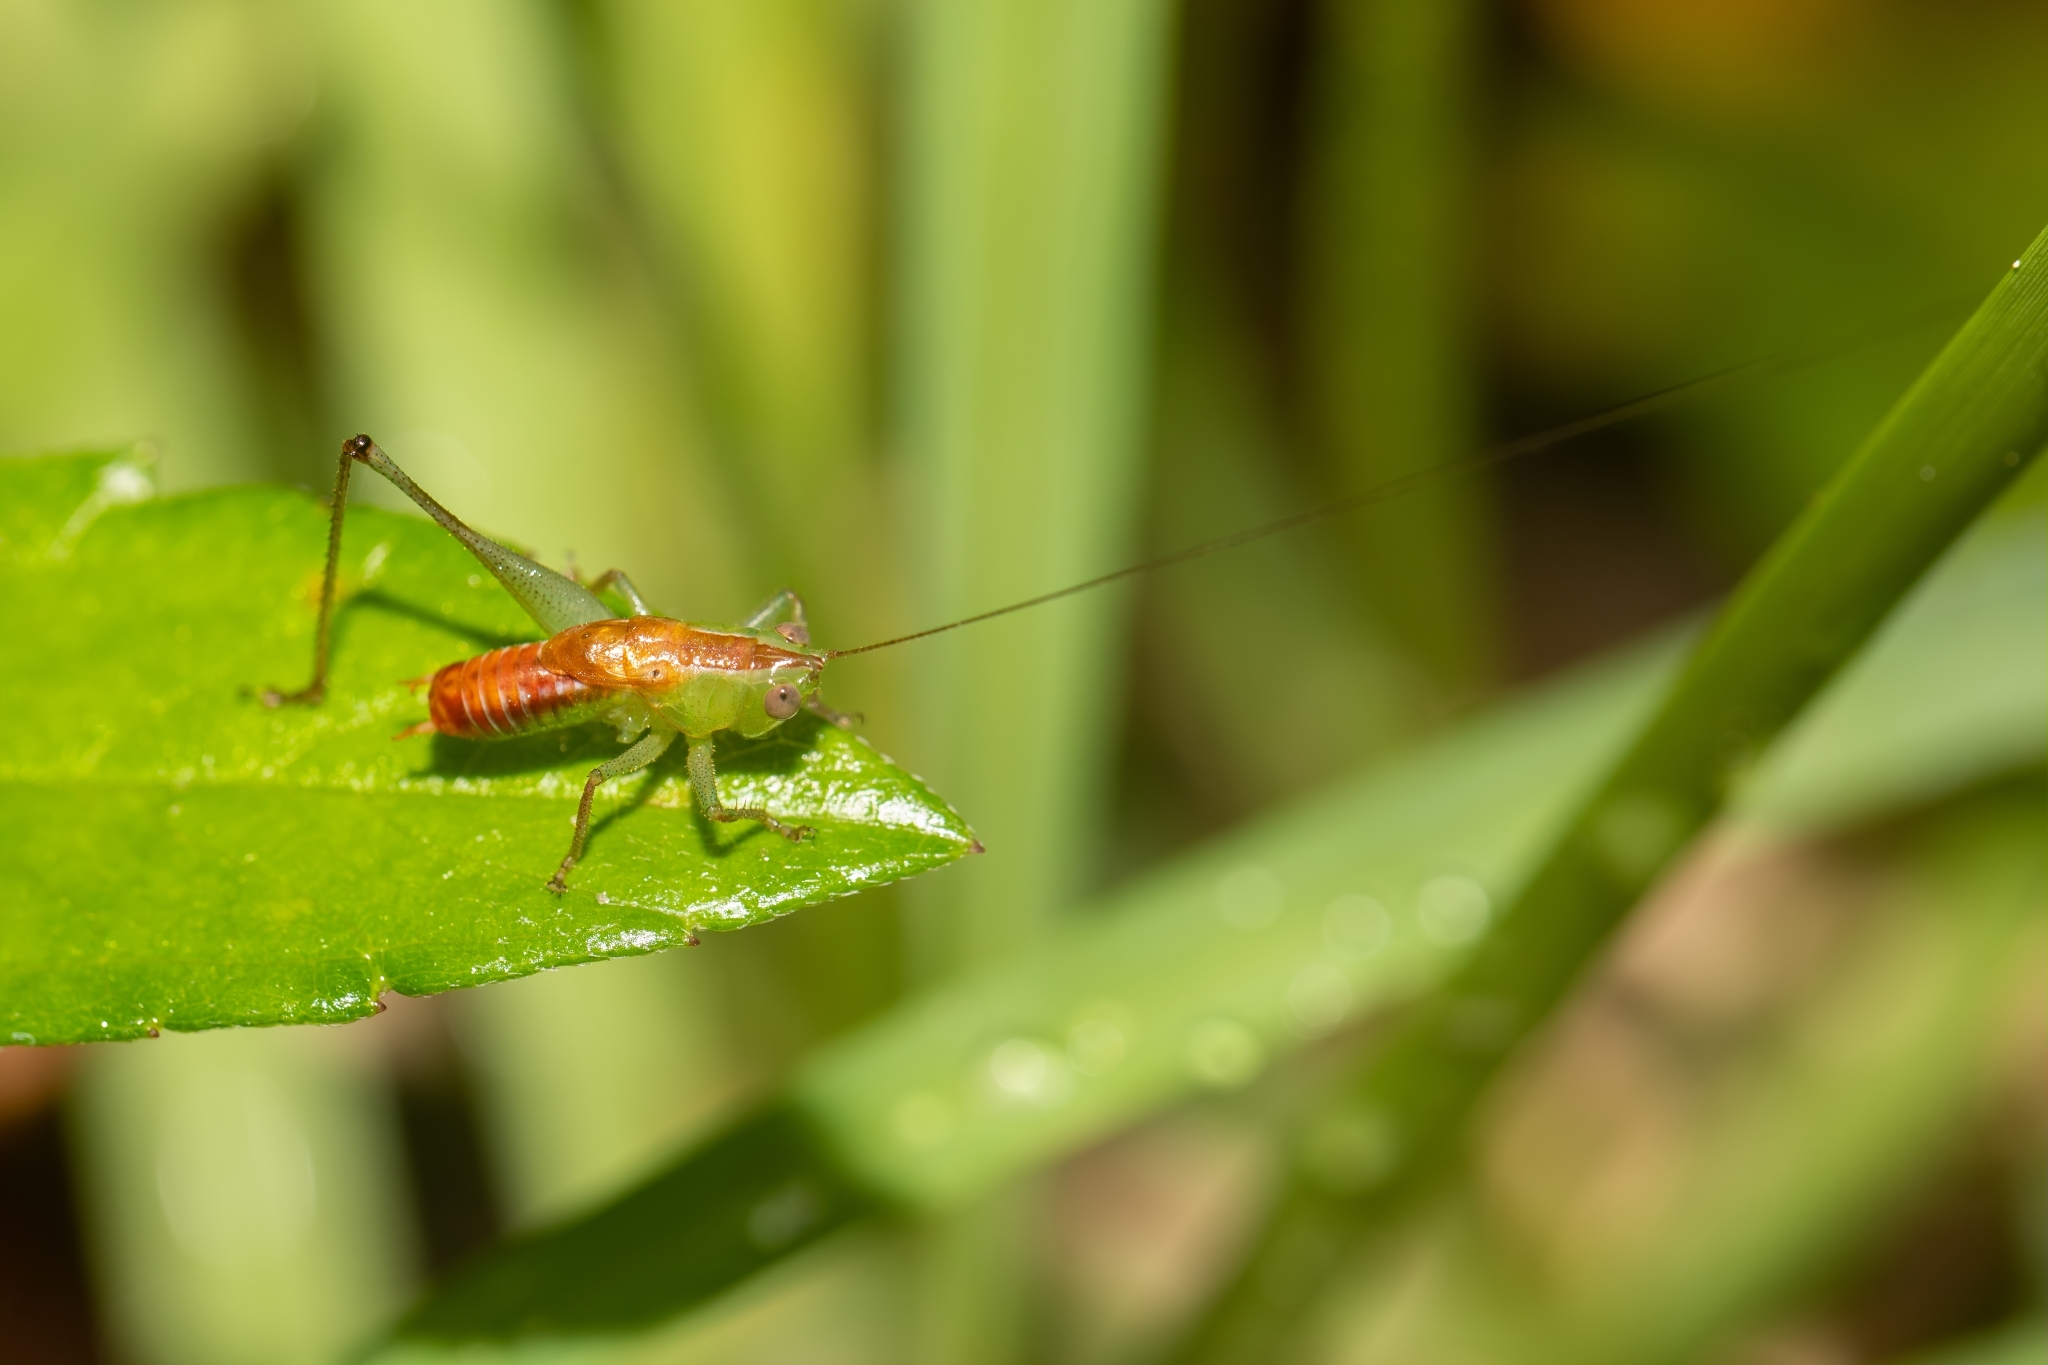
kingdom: Animalia
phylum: Arthropoda
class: Insecta
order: Orthoptera
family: Tettigoniidae
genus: Odontoxiphidium
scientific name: Odontoxiphidium apterum
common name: Wingless meadow katydid
